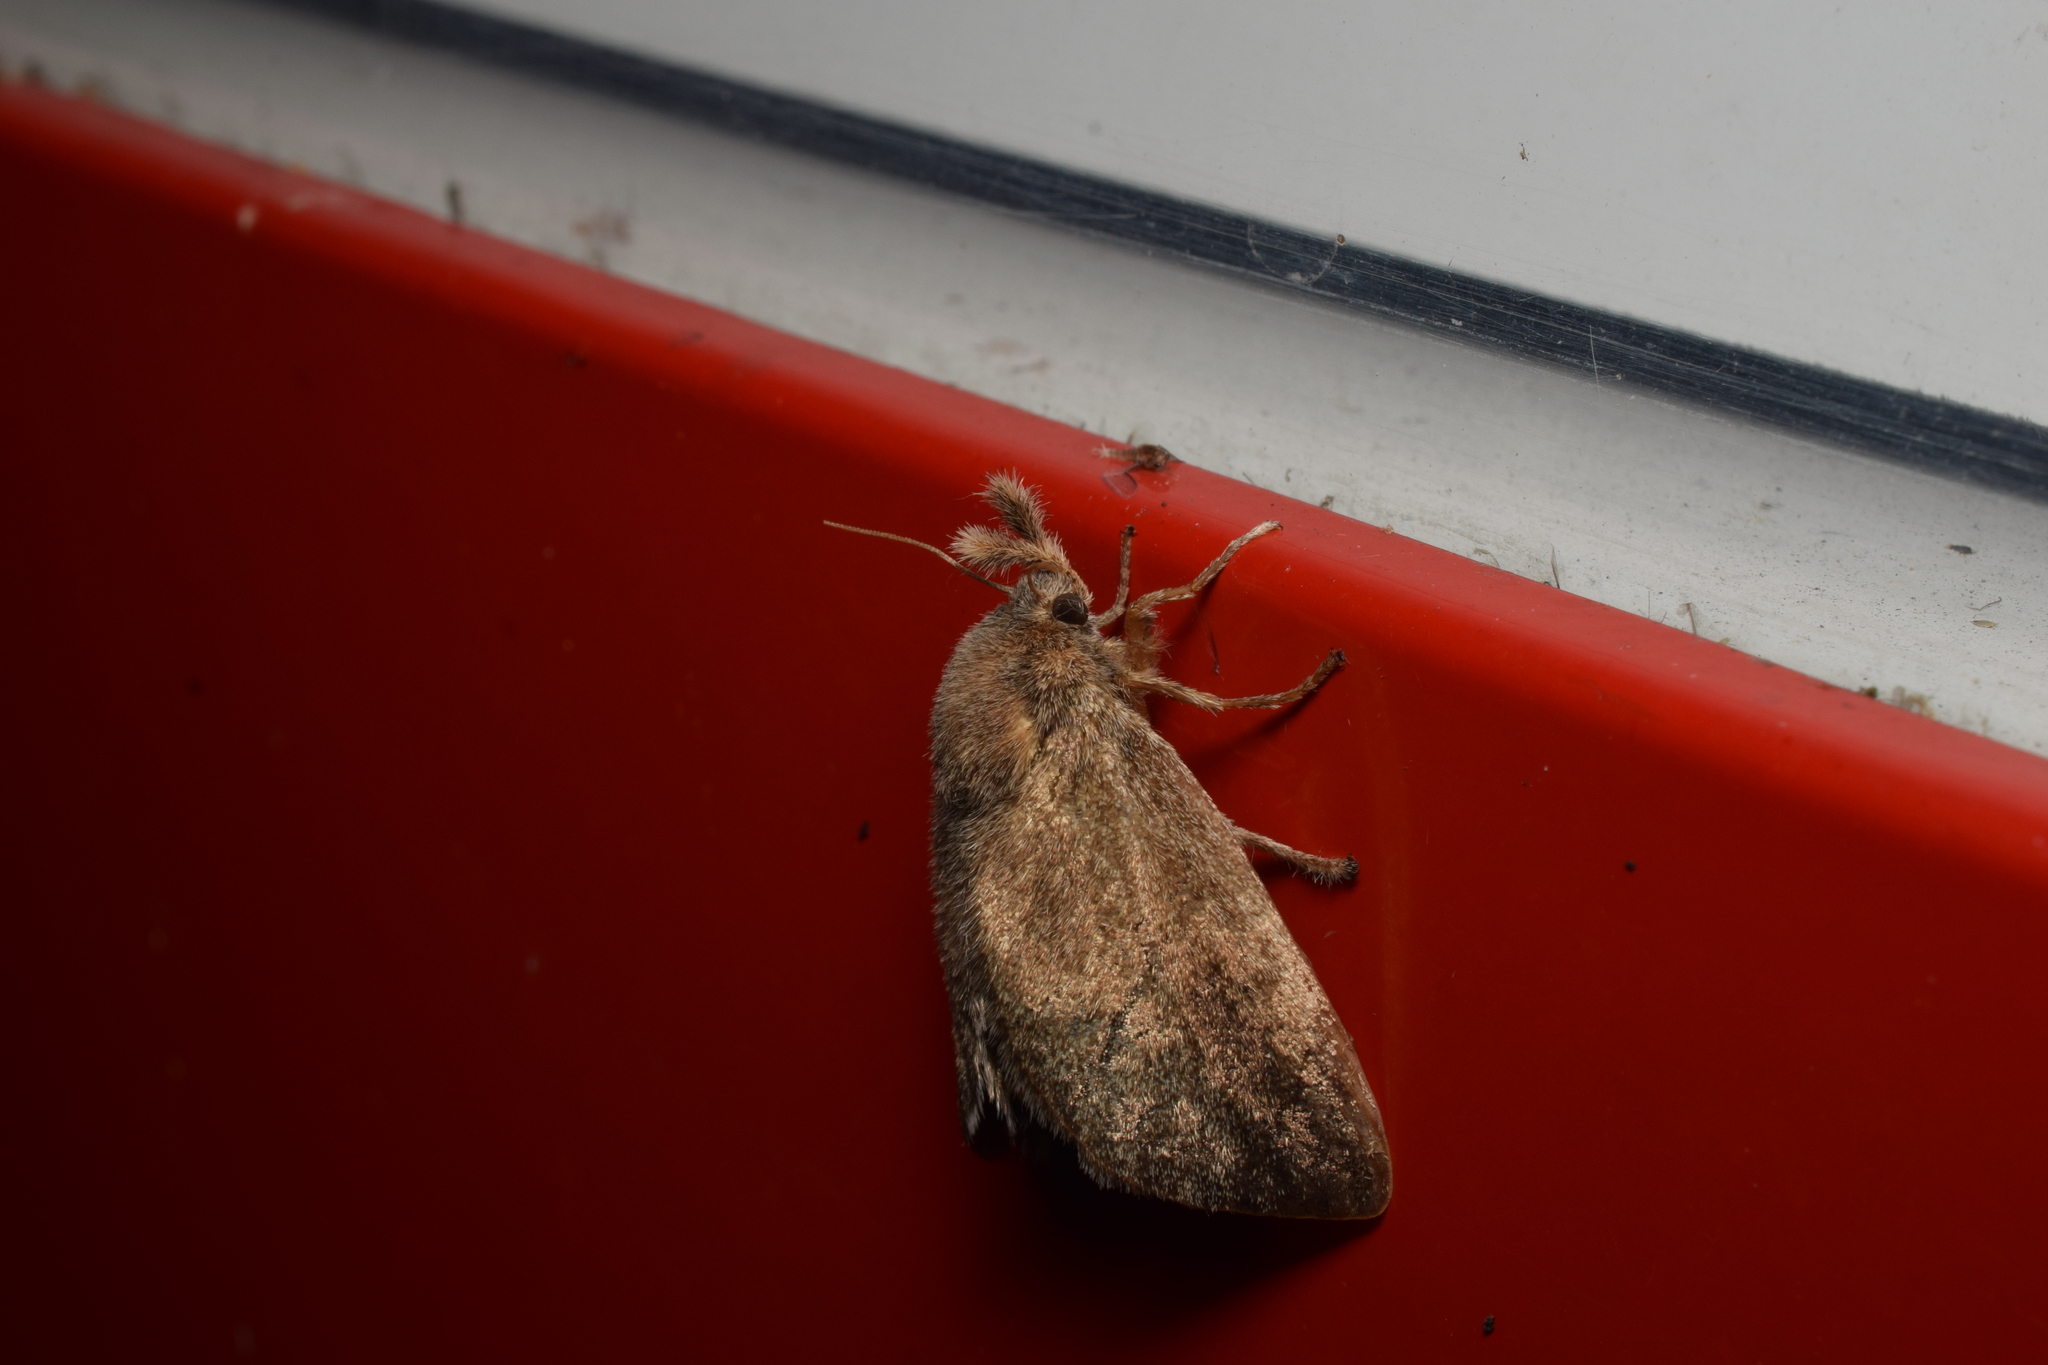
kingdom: Animalia
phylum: Arthropoda
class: Insecta
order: Lepidoptera
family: Limacodidae
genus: Scopelodes
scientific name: Scopelodes contracta
